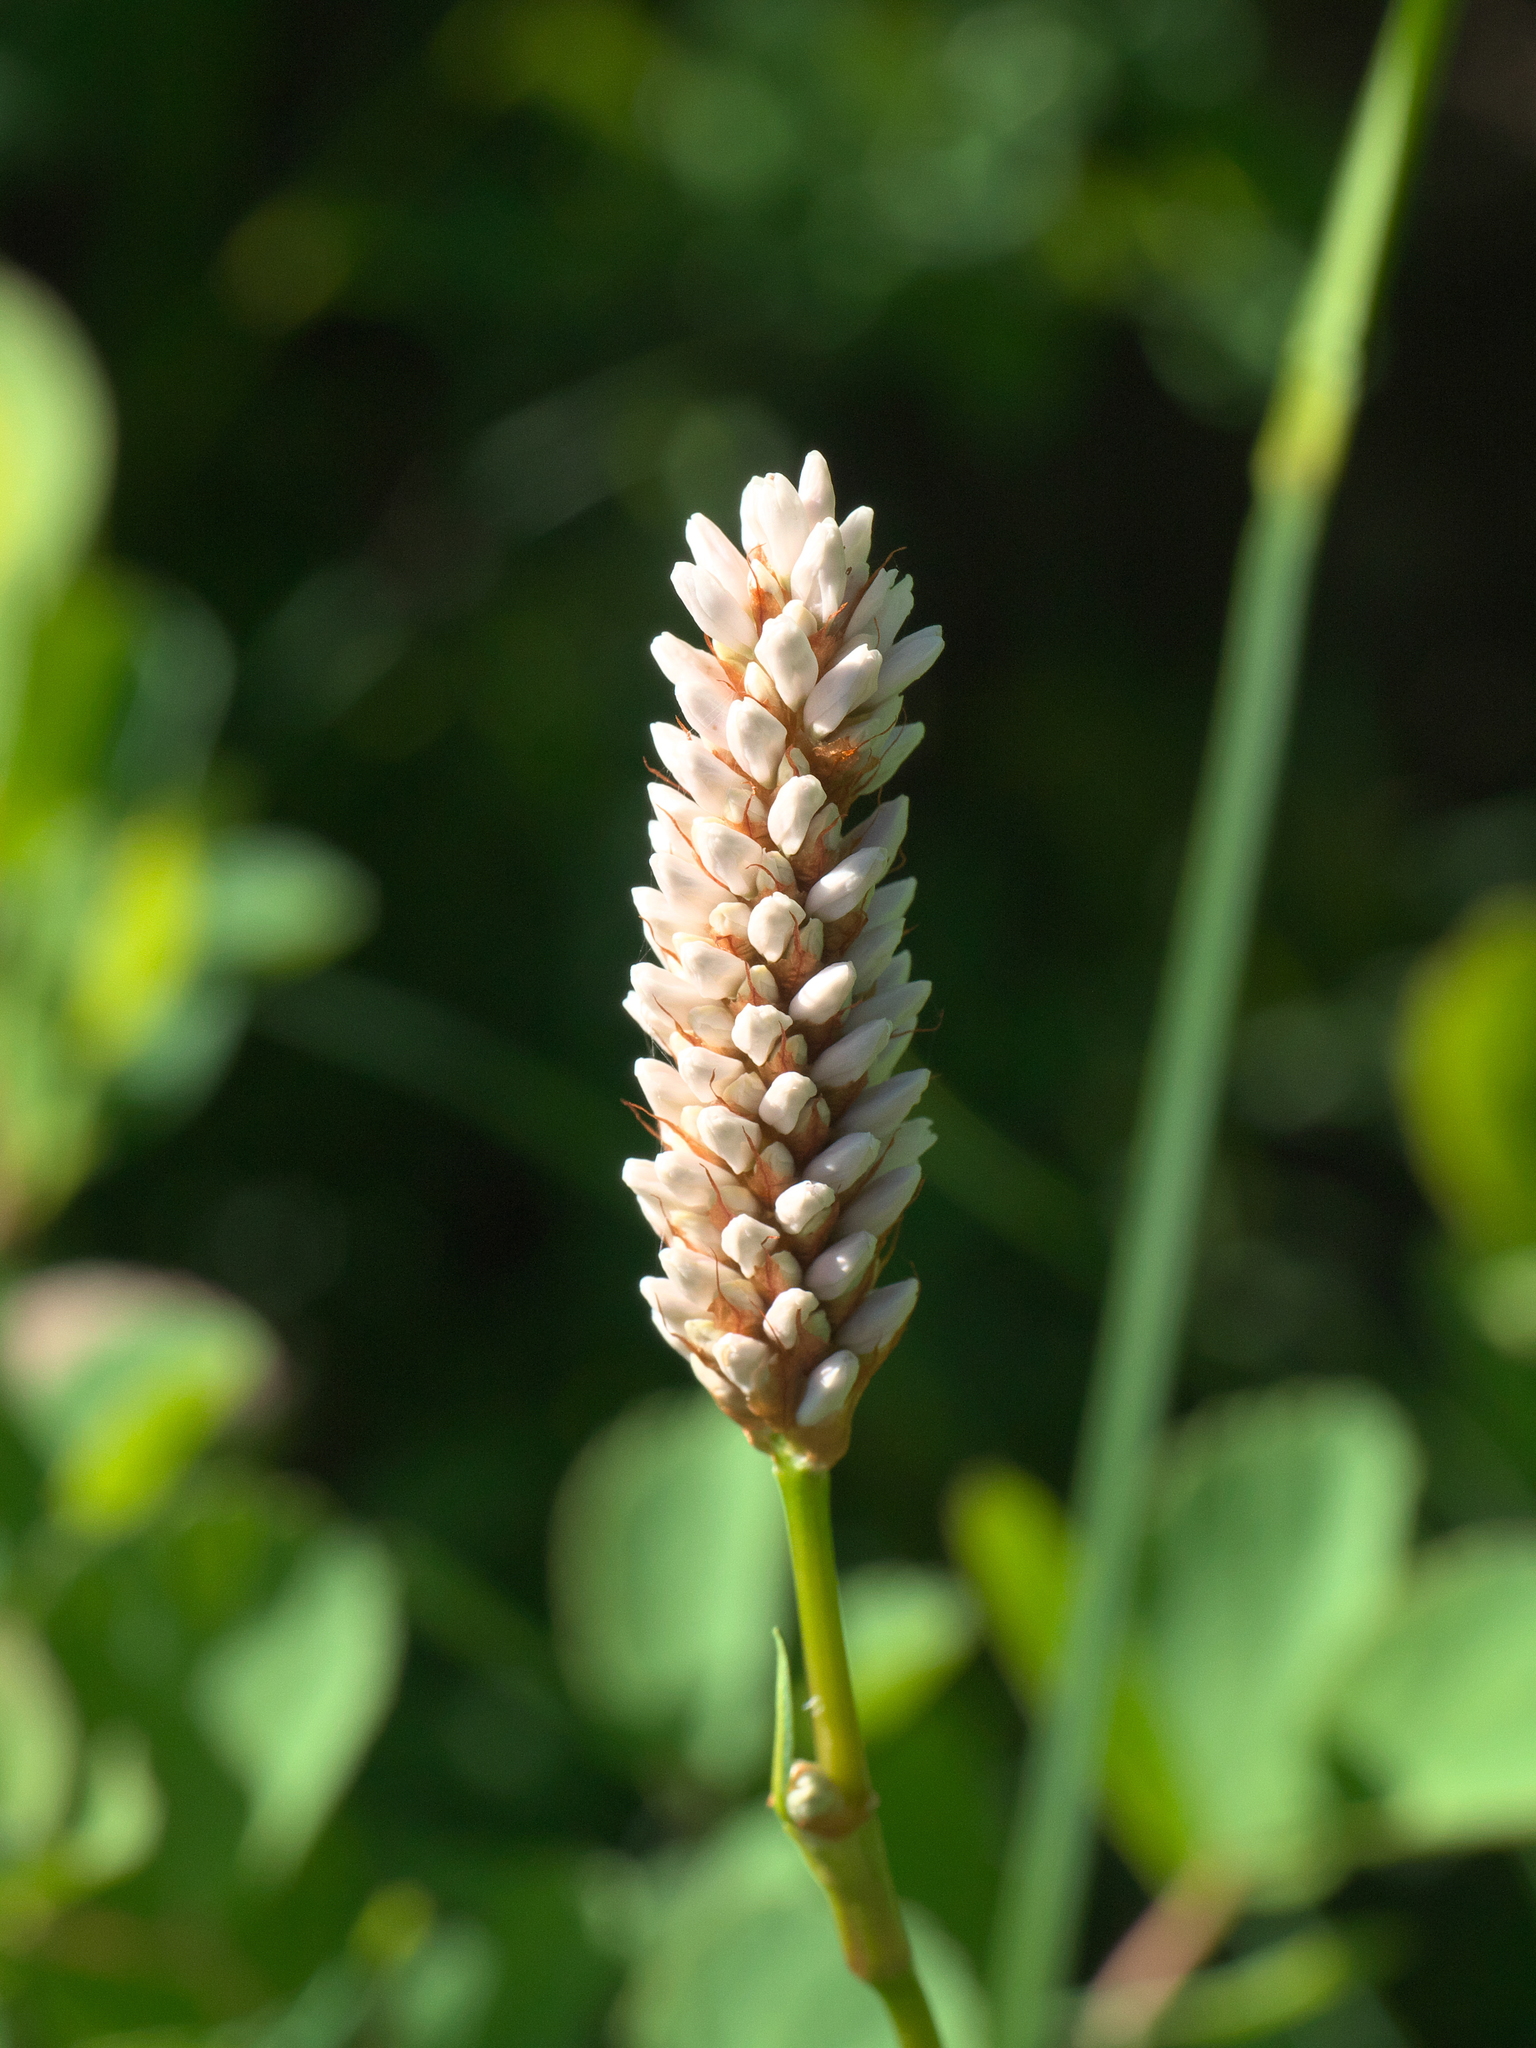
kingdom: Plantae
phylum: Tracheophyta
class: Magnoliopsida
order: Caryophyllales
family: Polygonaceae
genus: Bistorta
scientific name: Bistorta bistortoides
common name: American bistort
